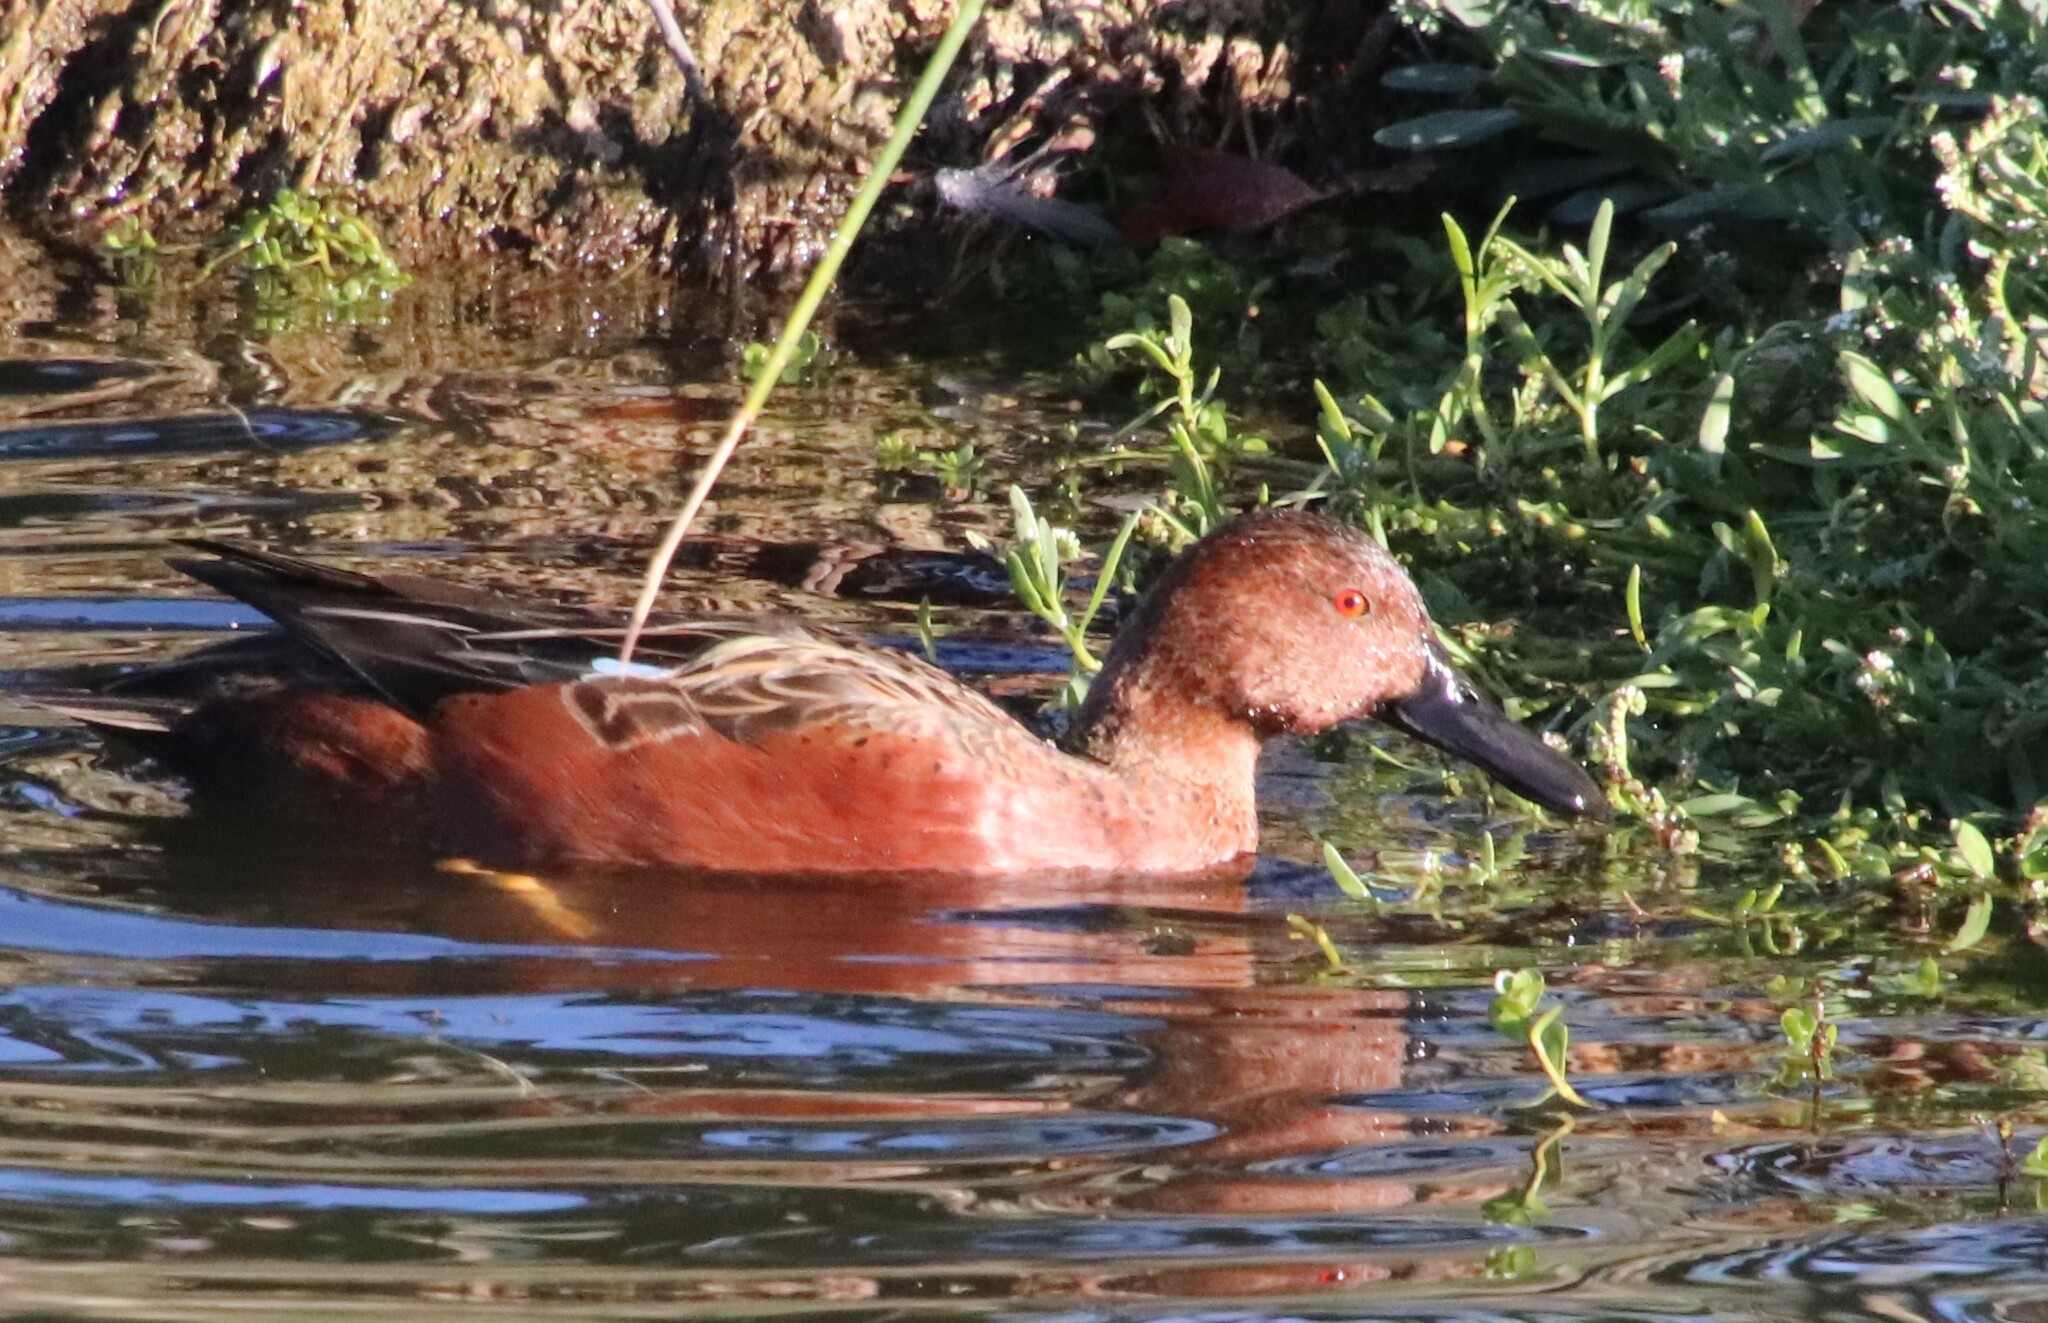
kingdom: Animalia
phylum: Chordata
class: Aves
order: Anseriformes
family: Anatidae
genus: Spatula
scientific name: Spatula cyanoptera
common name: Cinnamon teal
